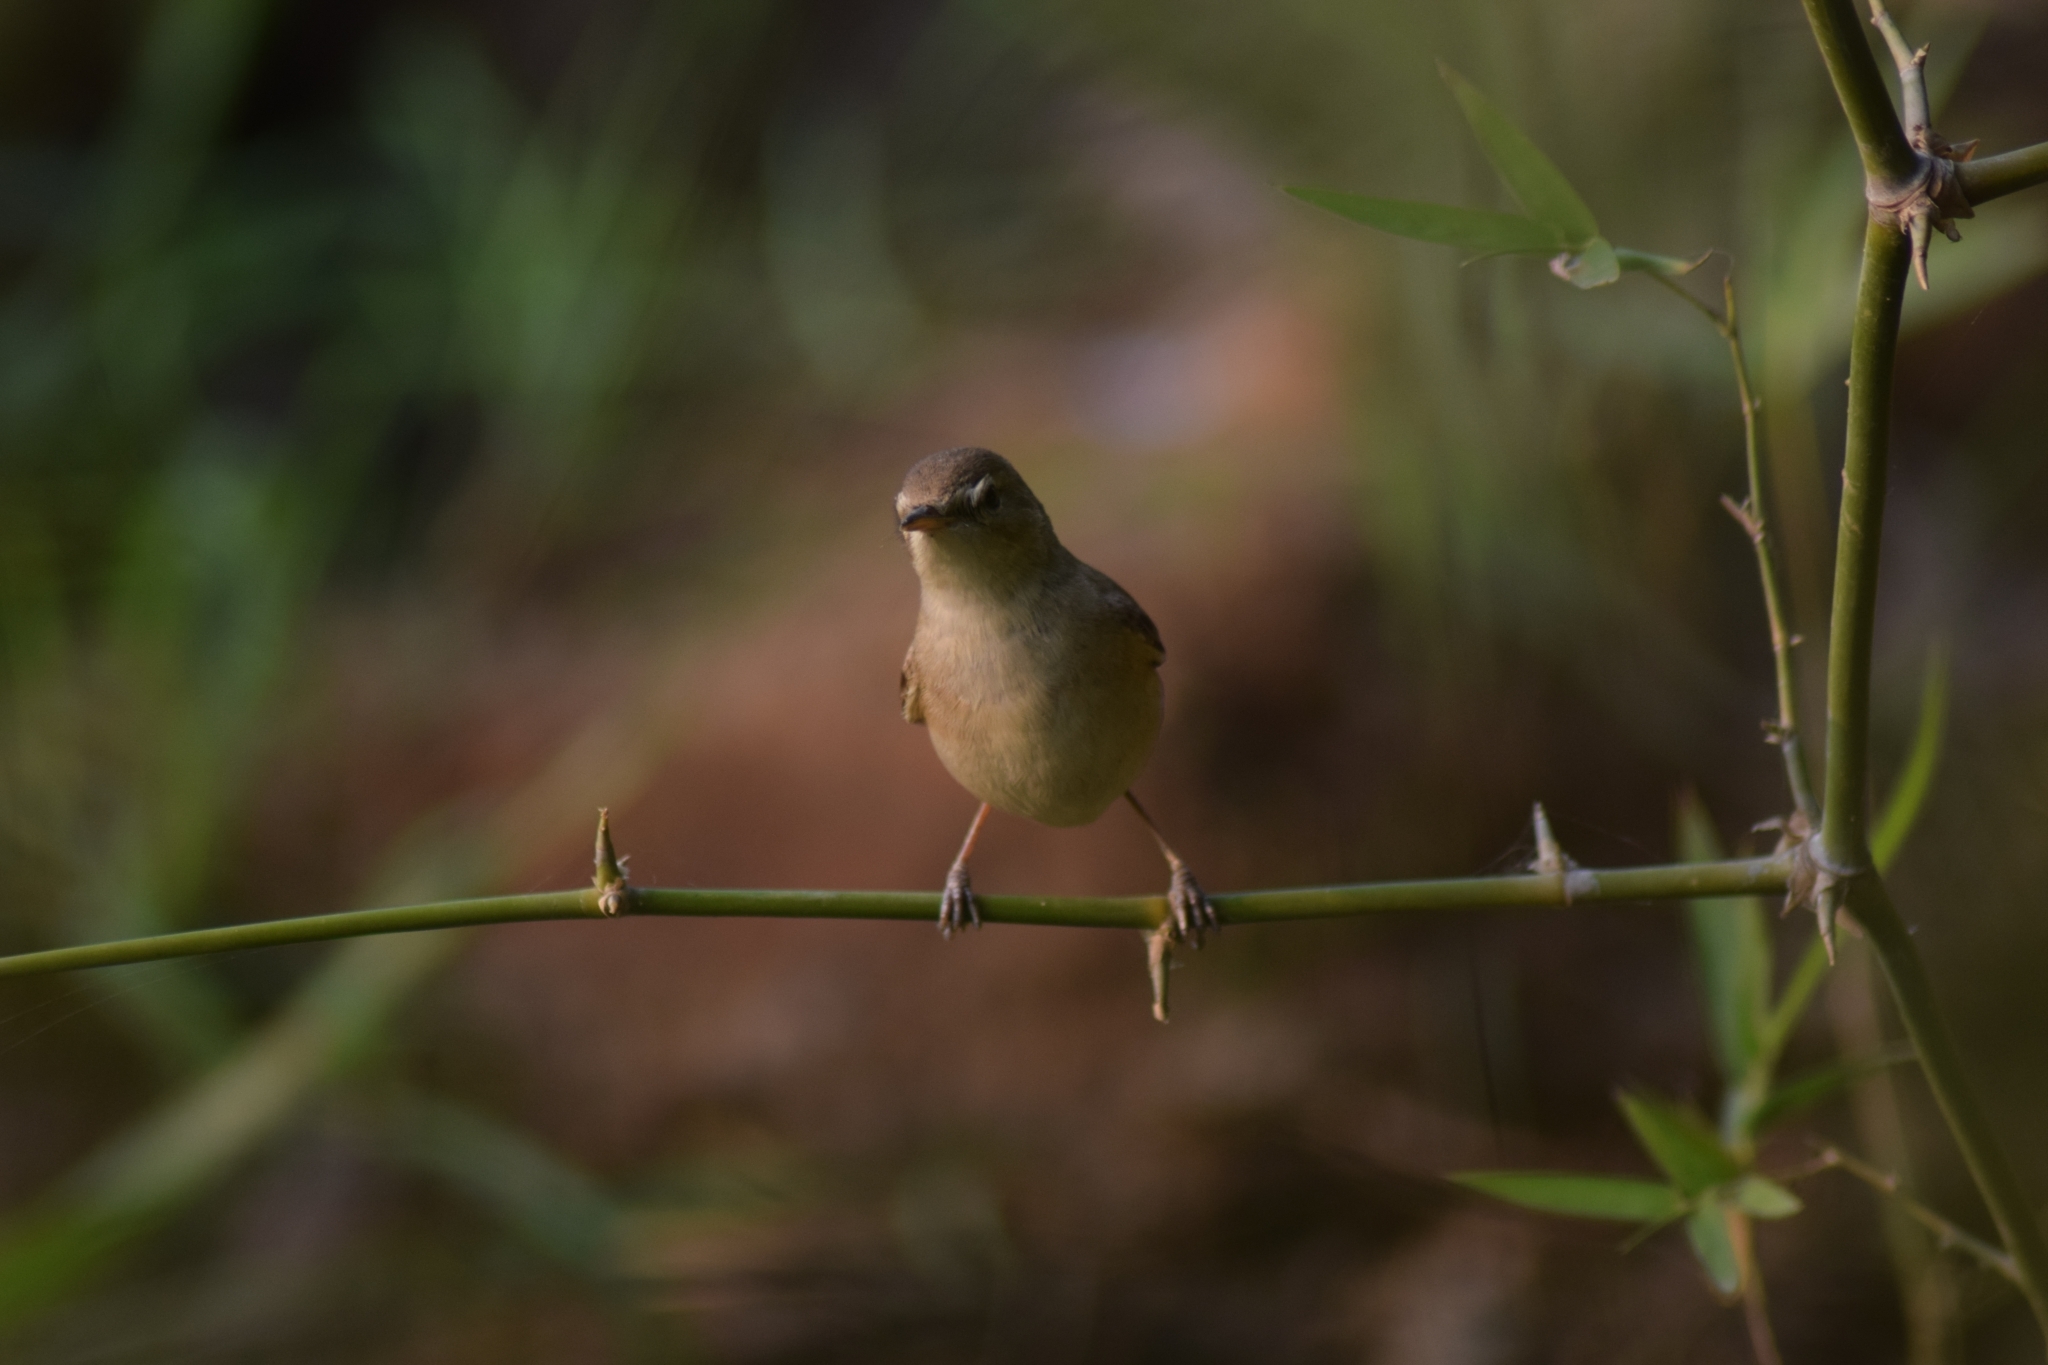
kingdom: Animalia
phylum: Chordata
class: Aves
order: Passeriformes
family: Acrocephalidae
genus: Iduna
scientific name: Iduna caligata
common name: Booted warbler
